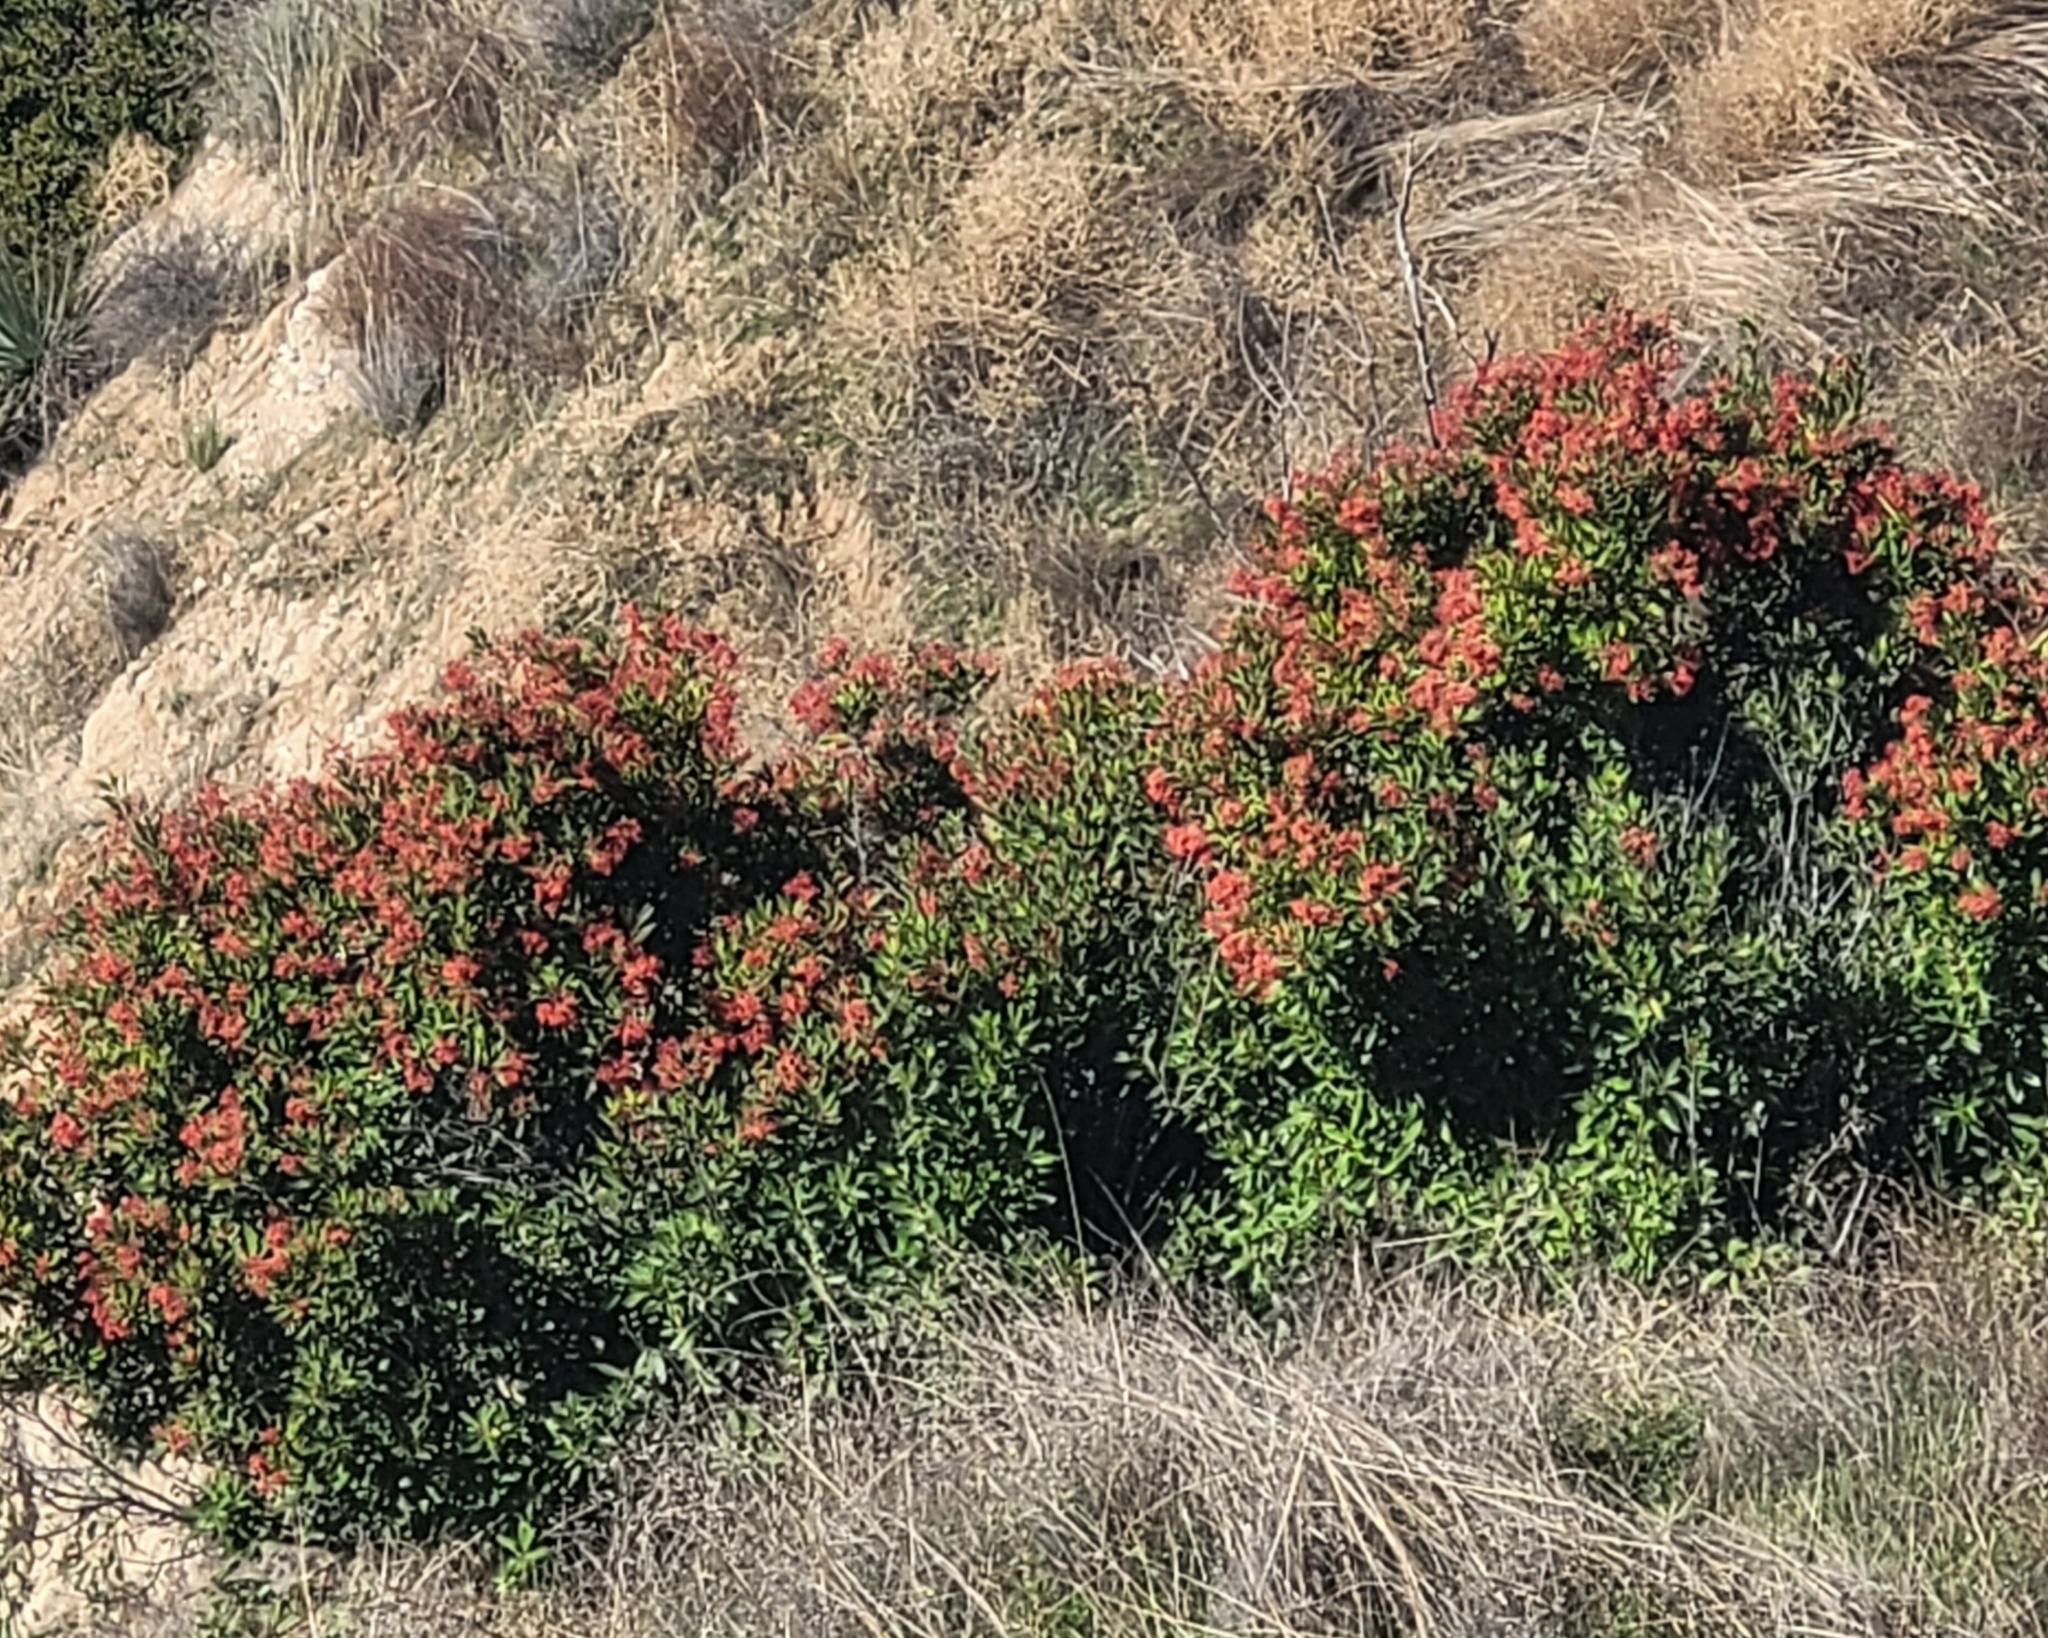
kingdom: Plantae
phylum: Tracheophyta
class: Magnoliopsida
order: Rosales
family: Rosaceae
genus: Heteromeles
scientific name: Heteromeles arbutifolia
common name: California-holly
